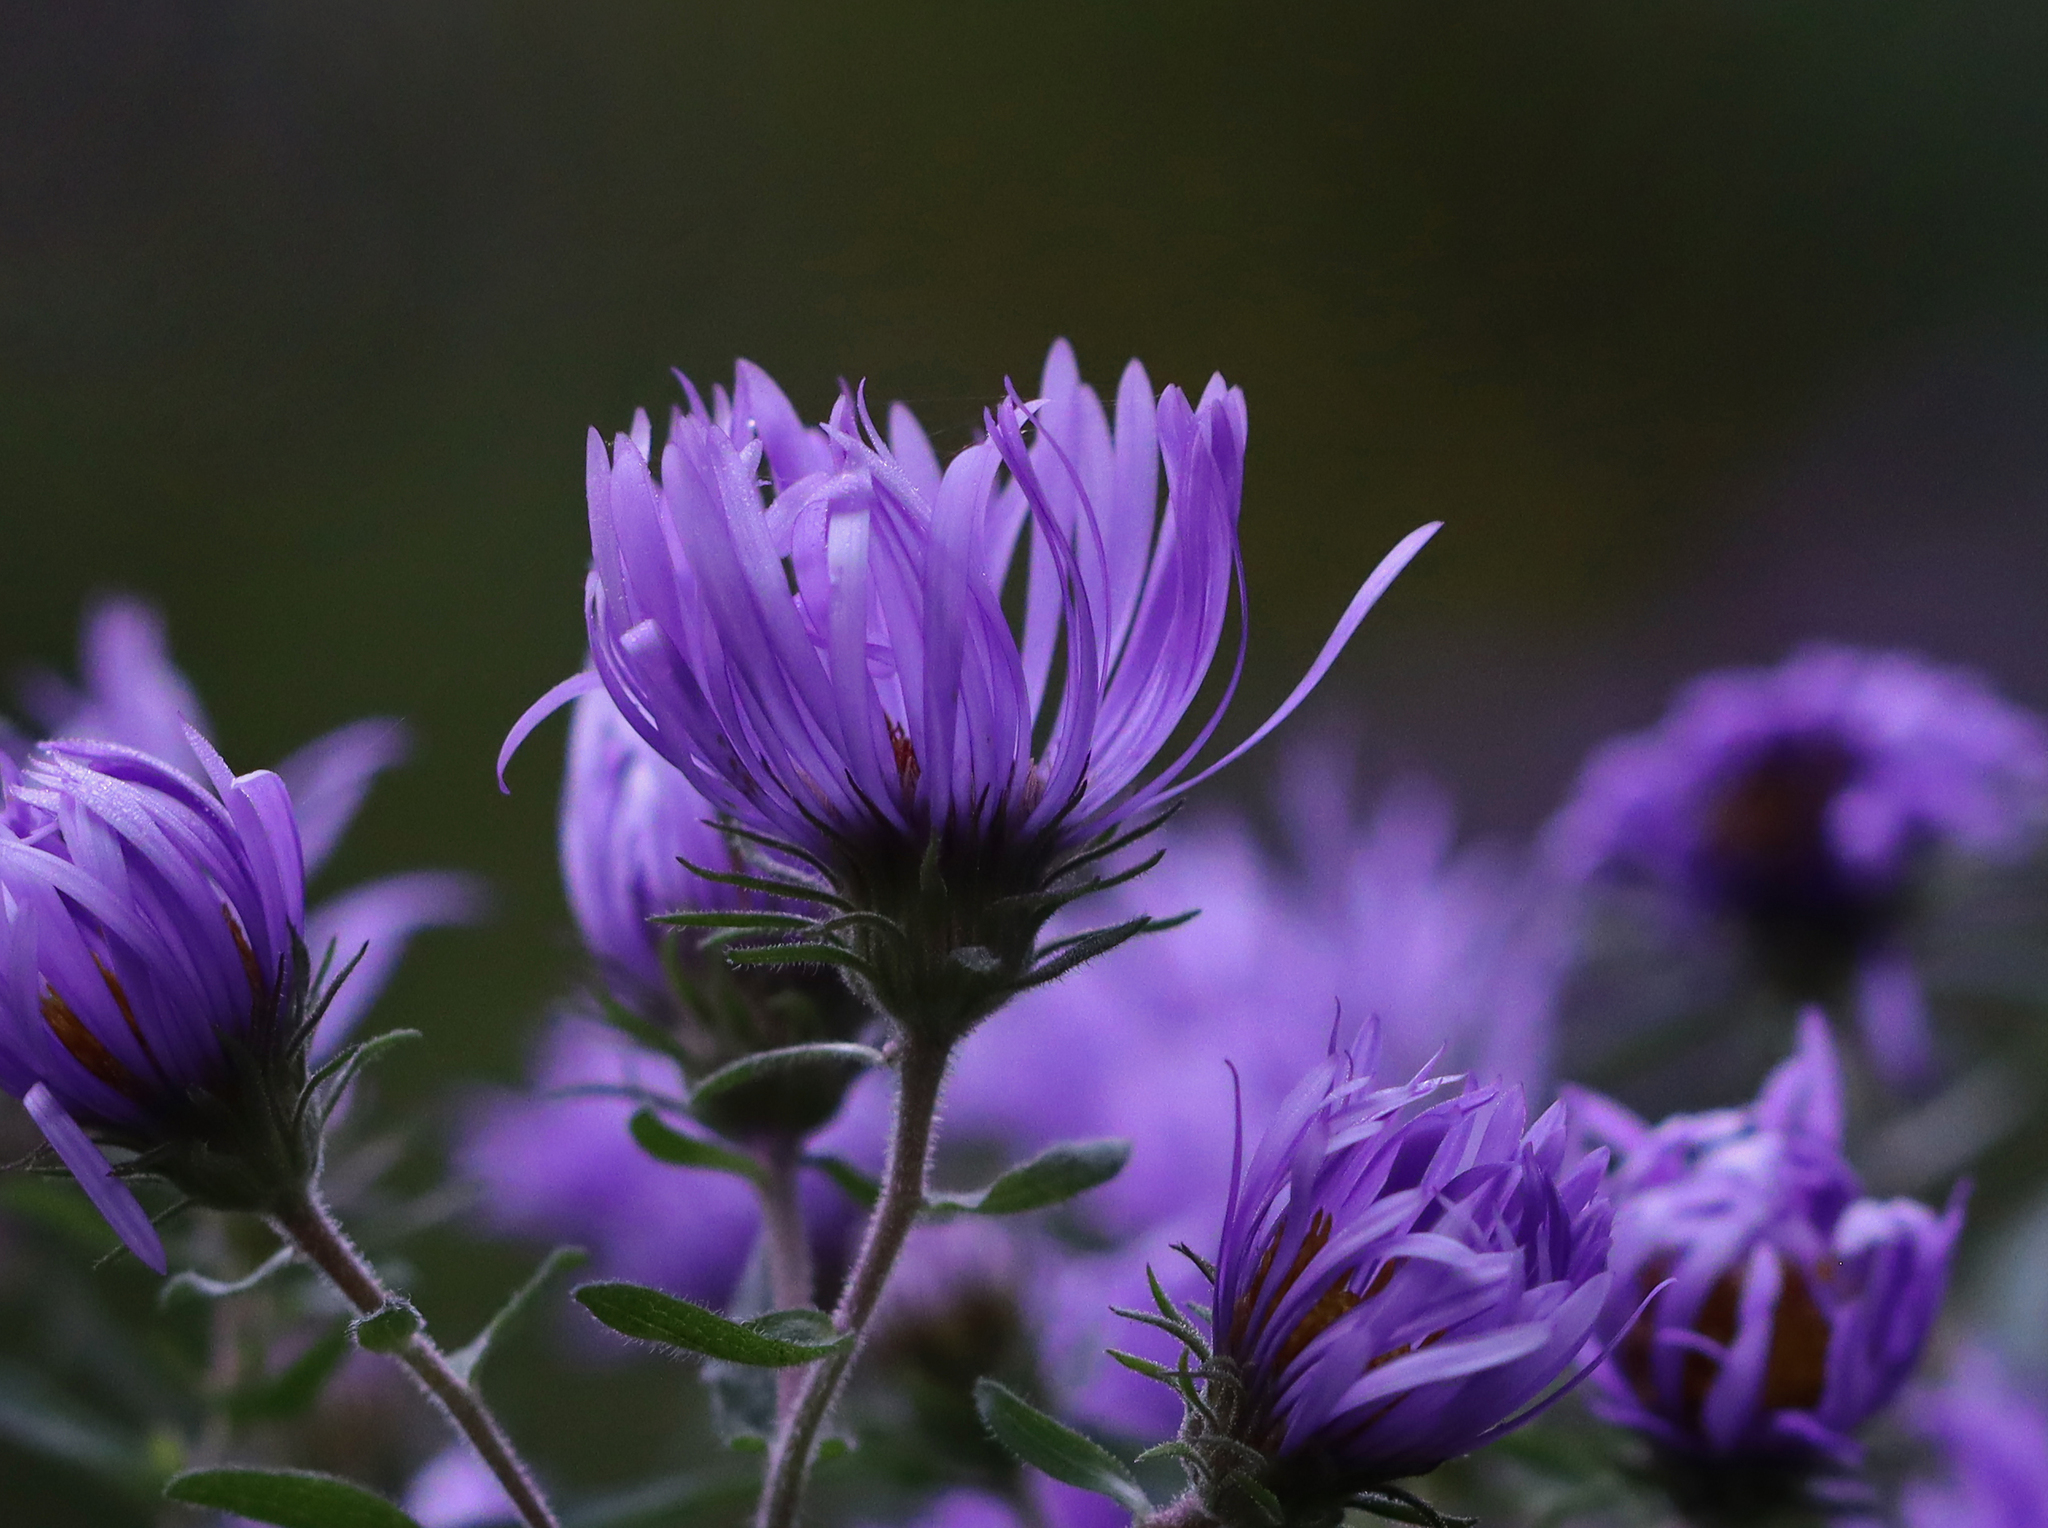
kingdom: Plantae
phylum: Tracheophyta
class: Magnoliopsida
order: Asterales
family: Asteraceae
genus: Symphyotrichum
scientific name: Symphyotrichum novae-angliae
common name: Michaelmas daisy
